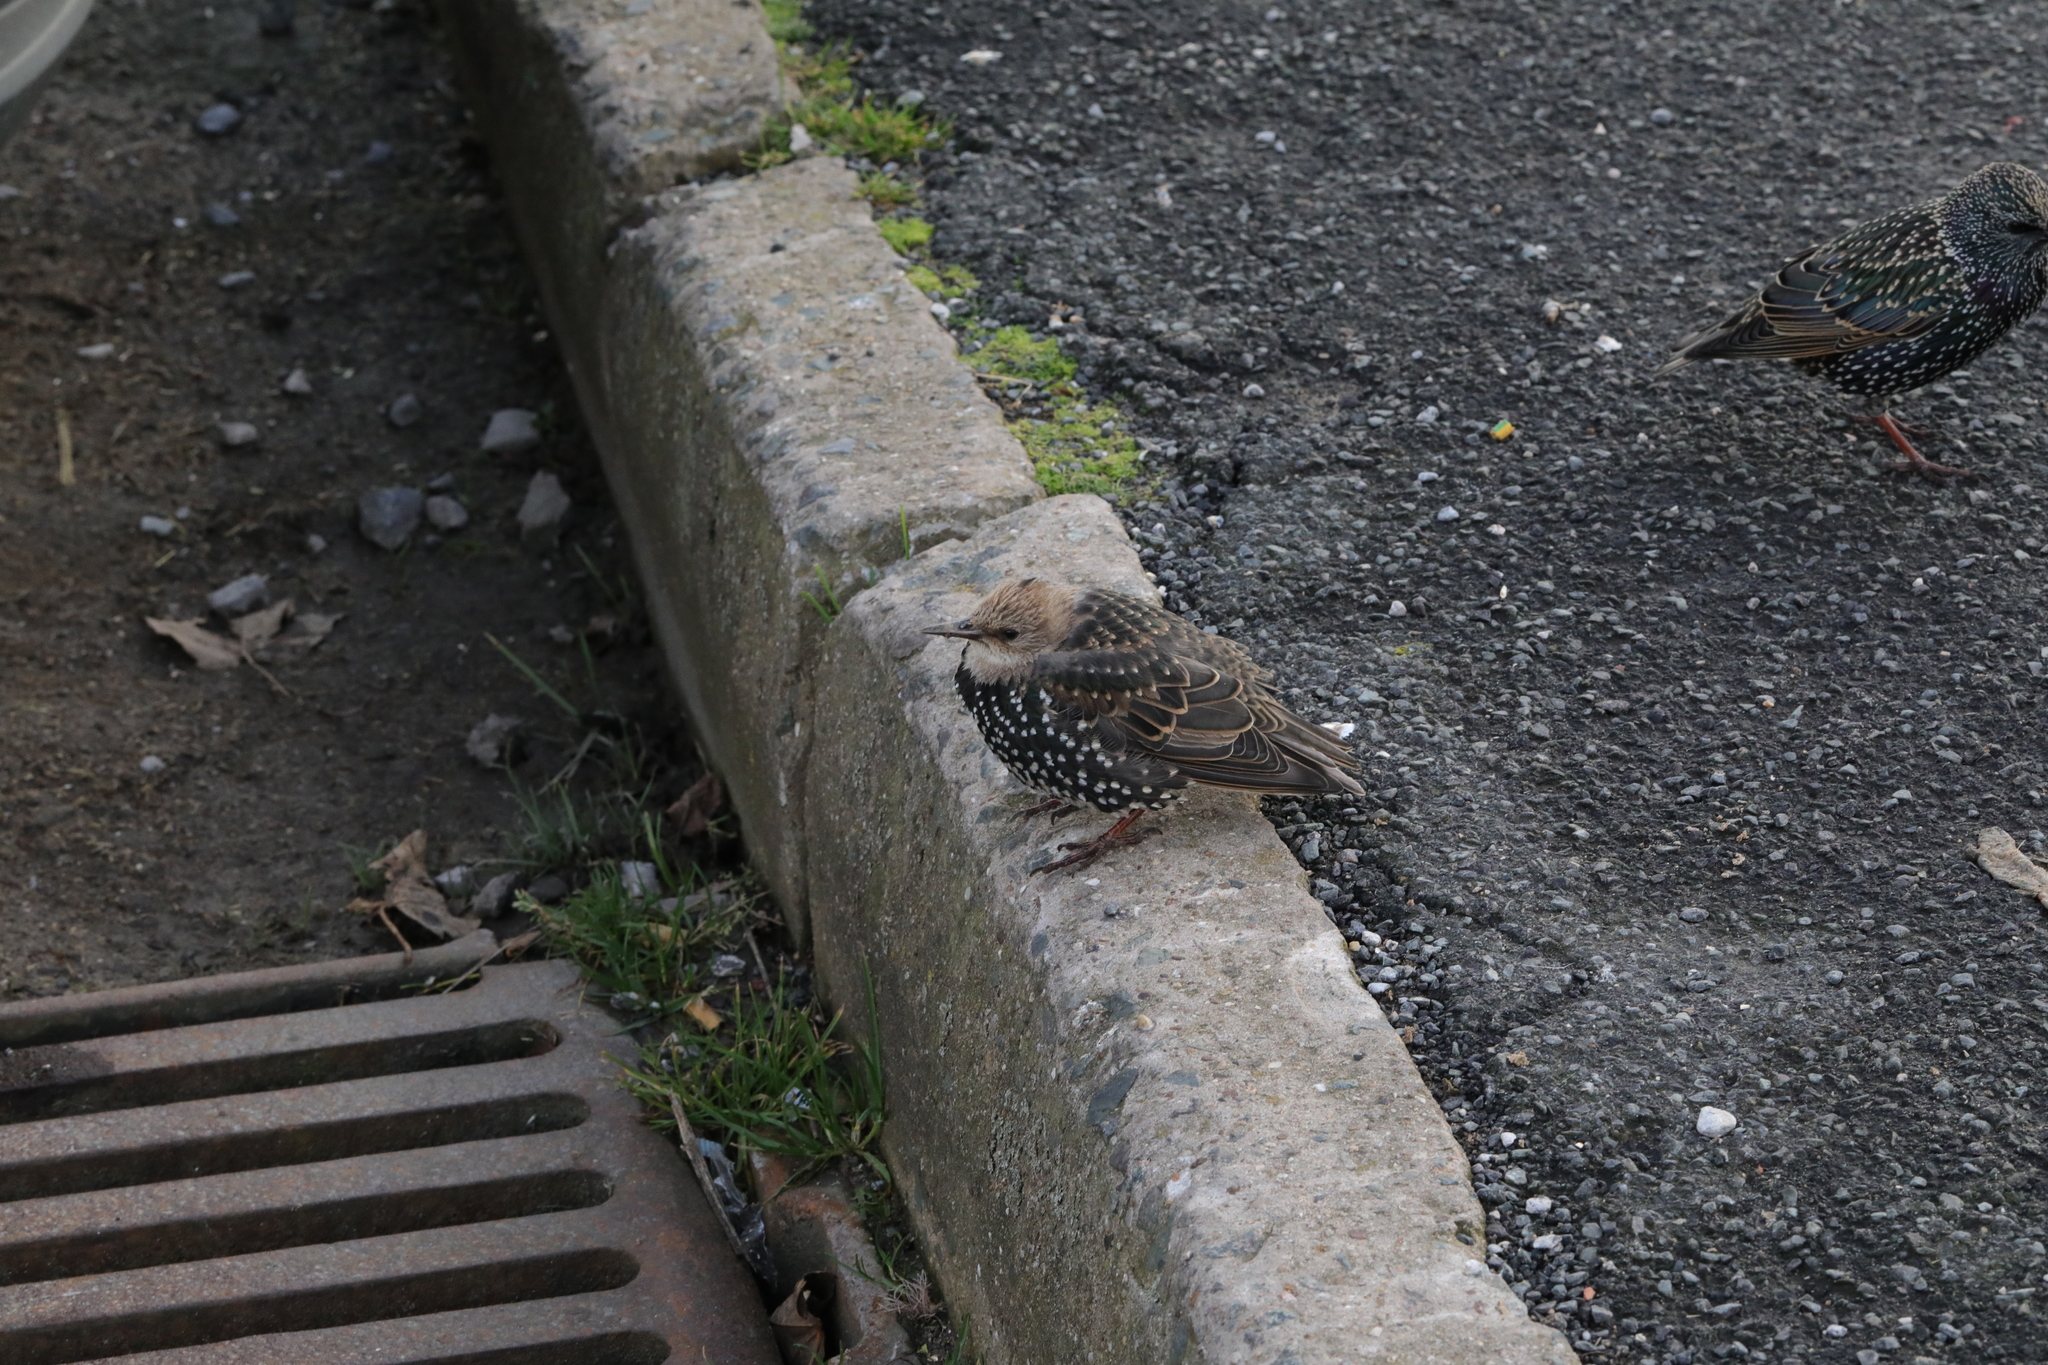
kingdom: Animalia
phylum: Chordata
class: Aves
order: Passeriformes
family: Sturnidae
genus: Sturnus
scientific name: Sturnus vulgaris
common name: Common starling
